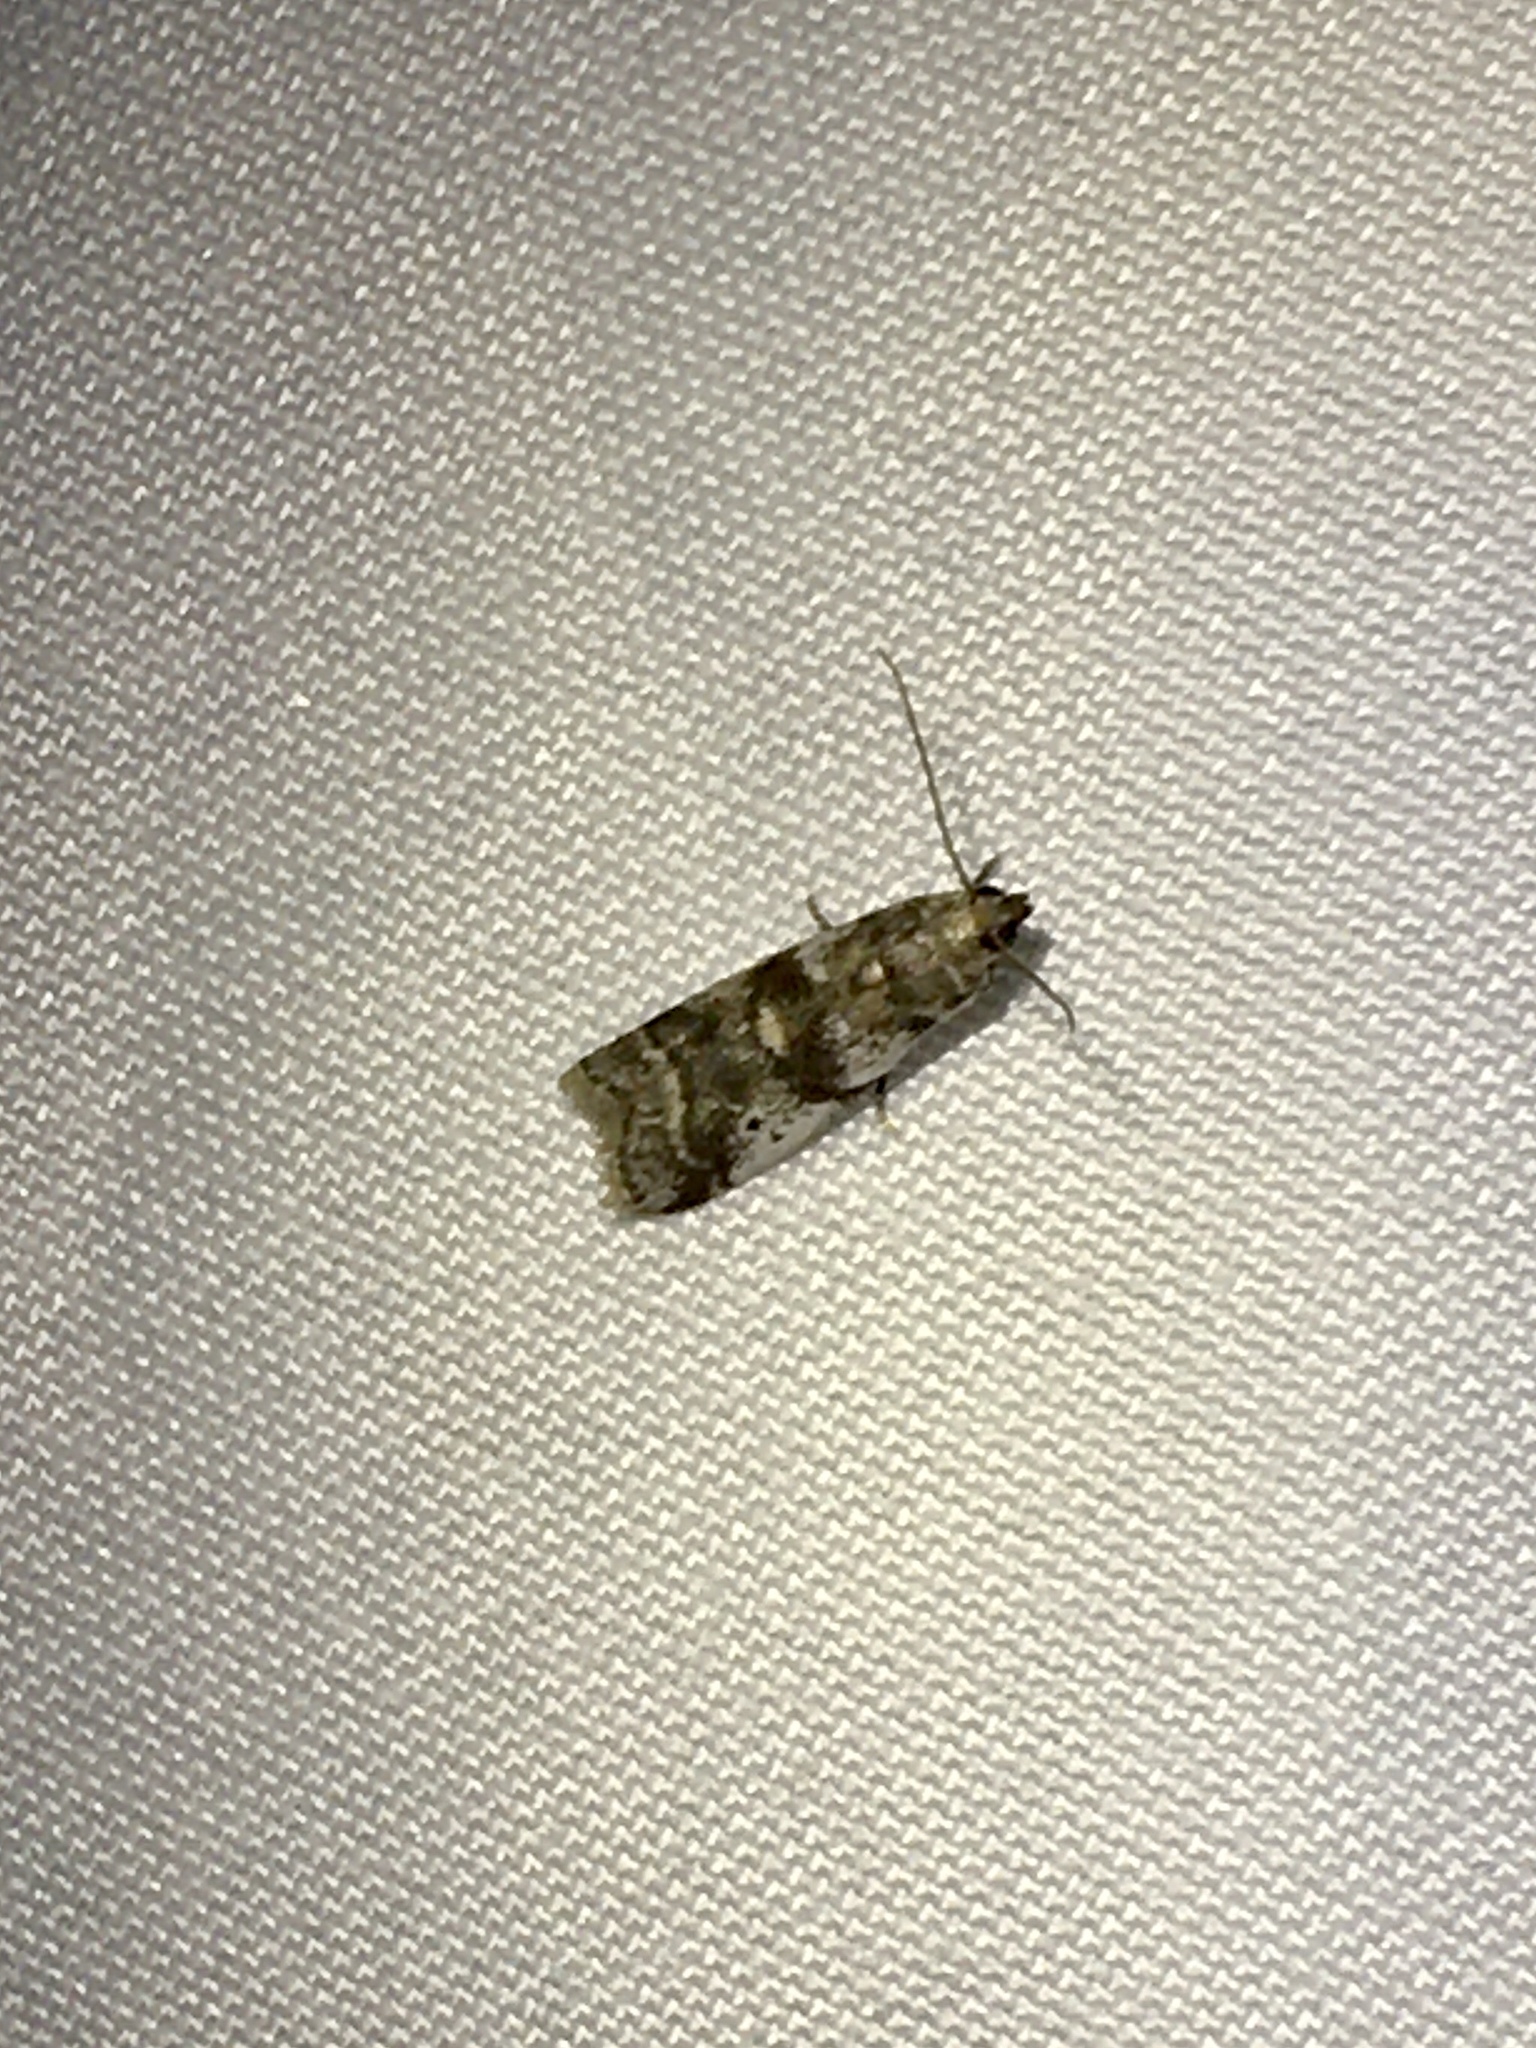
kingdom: Animalia
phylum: Arthropoda
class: Insecta
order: Lepidoptera
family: Pyralidae
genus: Acrobasis
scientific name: Acrobasis indigenella
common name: Leaf crumpler moth
